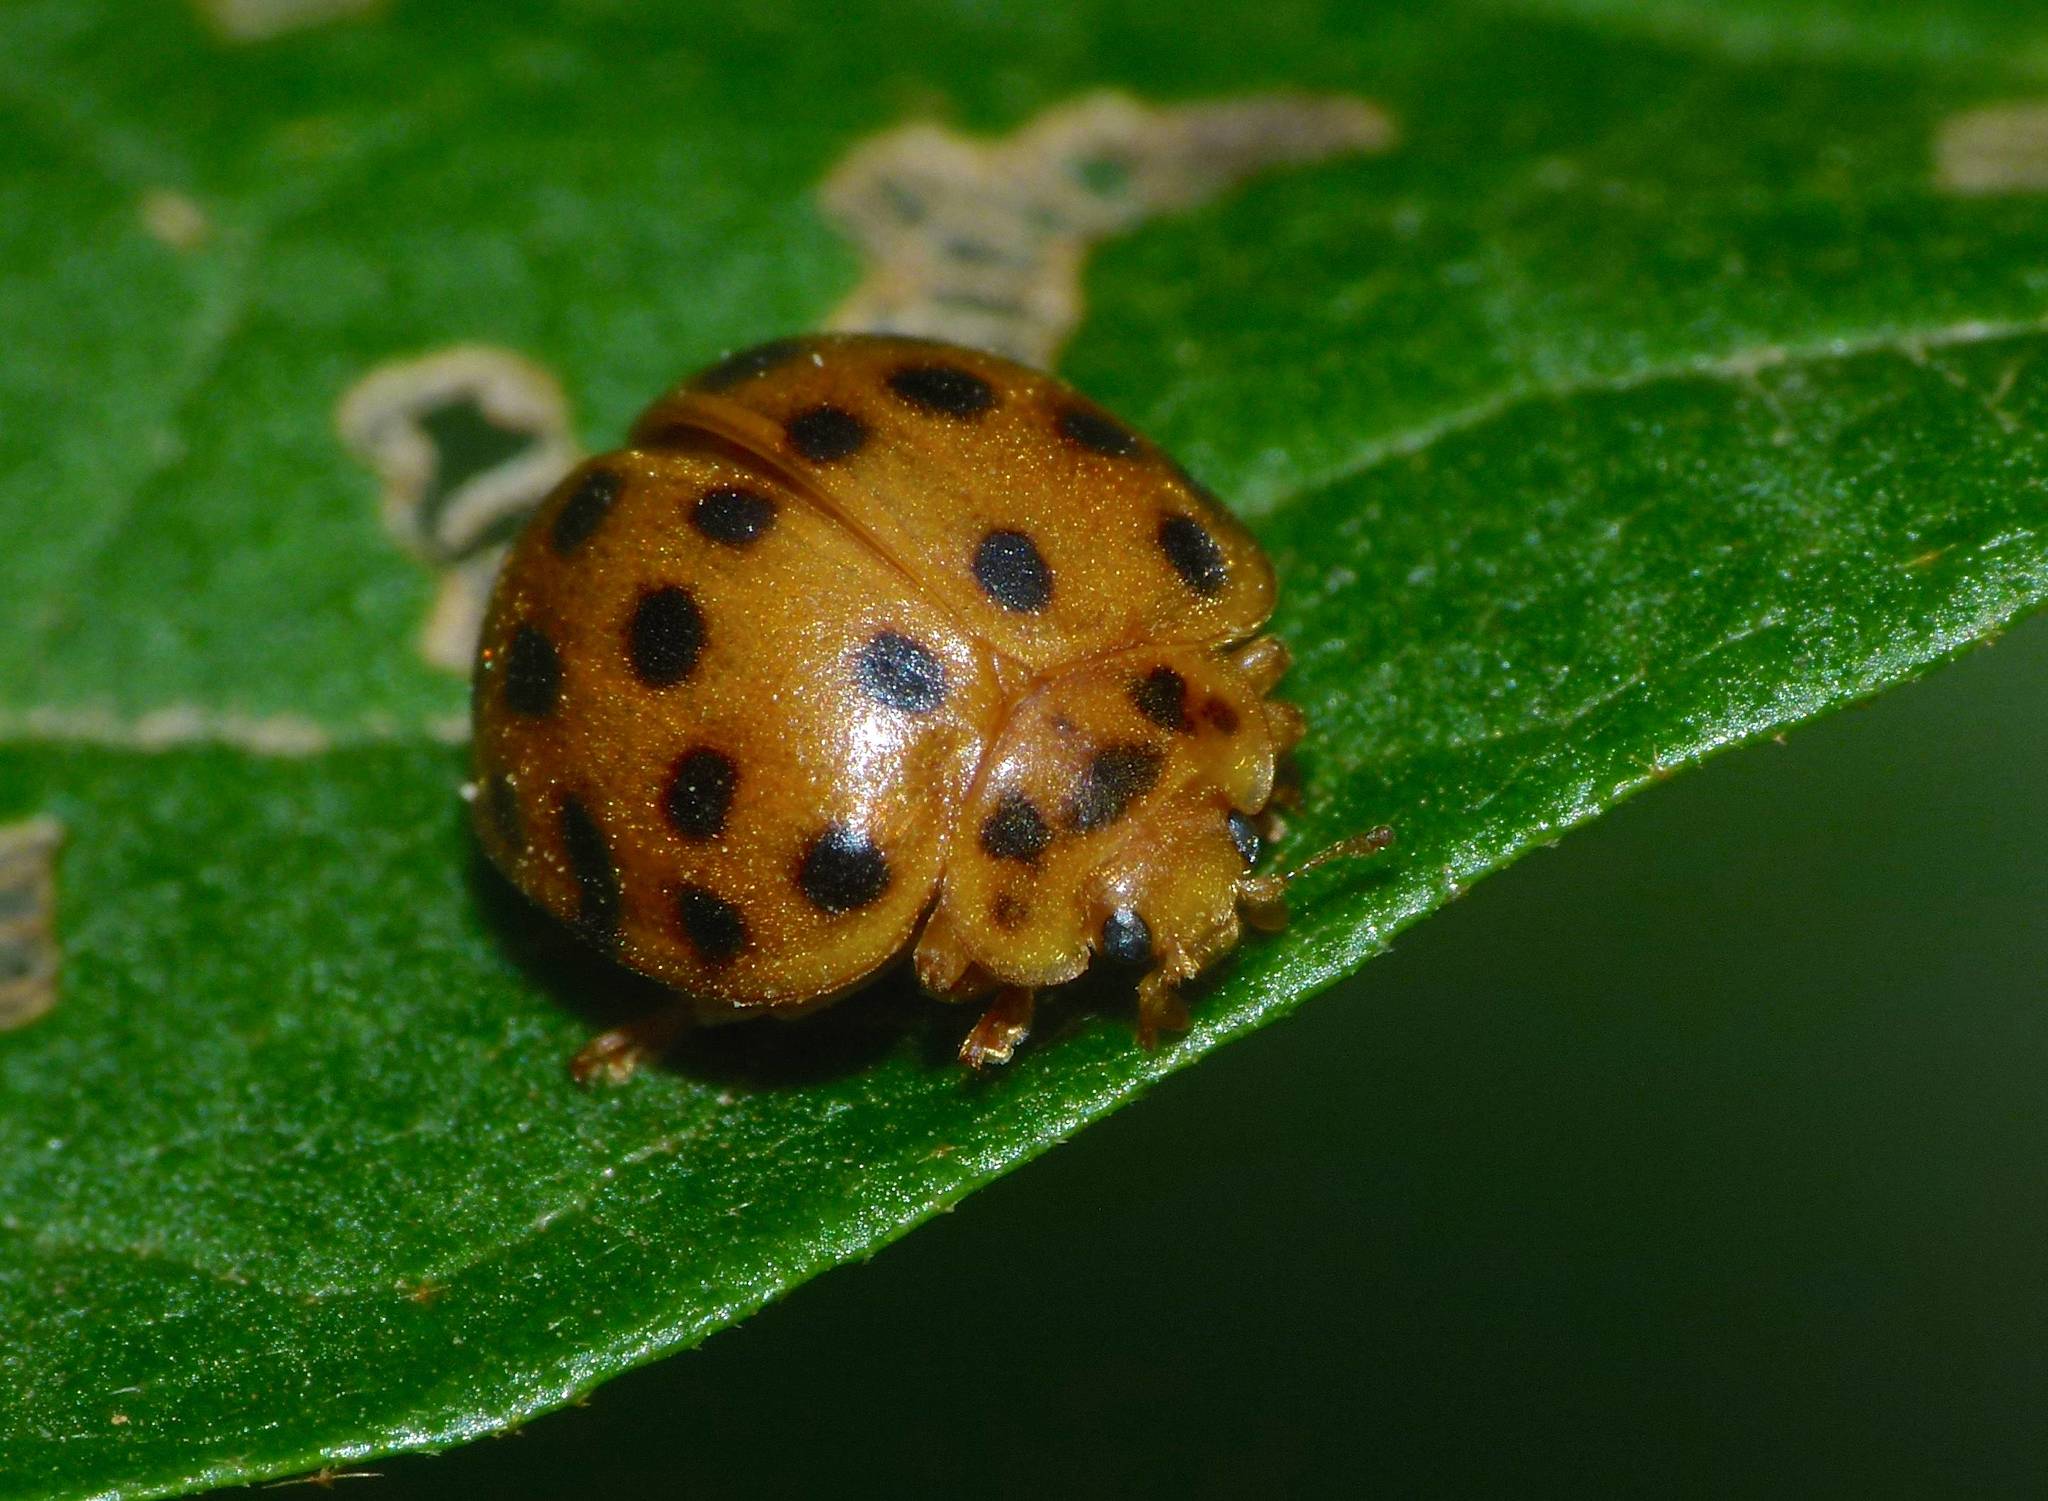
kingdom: Animalia
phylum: Arthropoda
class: Insecta
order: Coleoptera
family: Coccinellidae
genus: Henosepilachna
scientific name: Henosepilachna vigintioctopunctata
